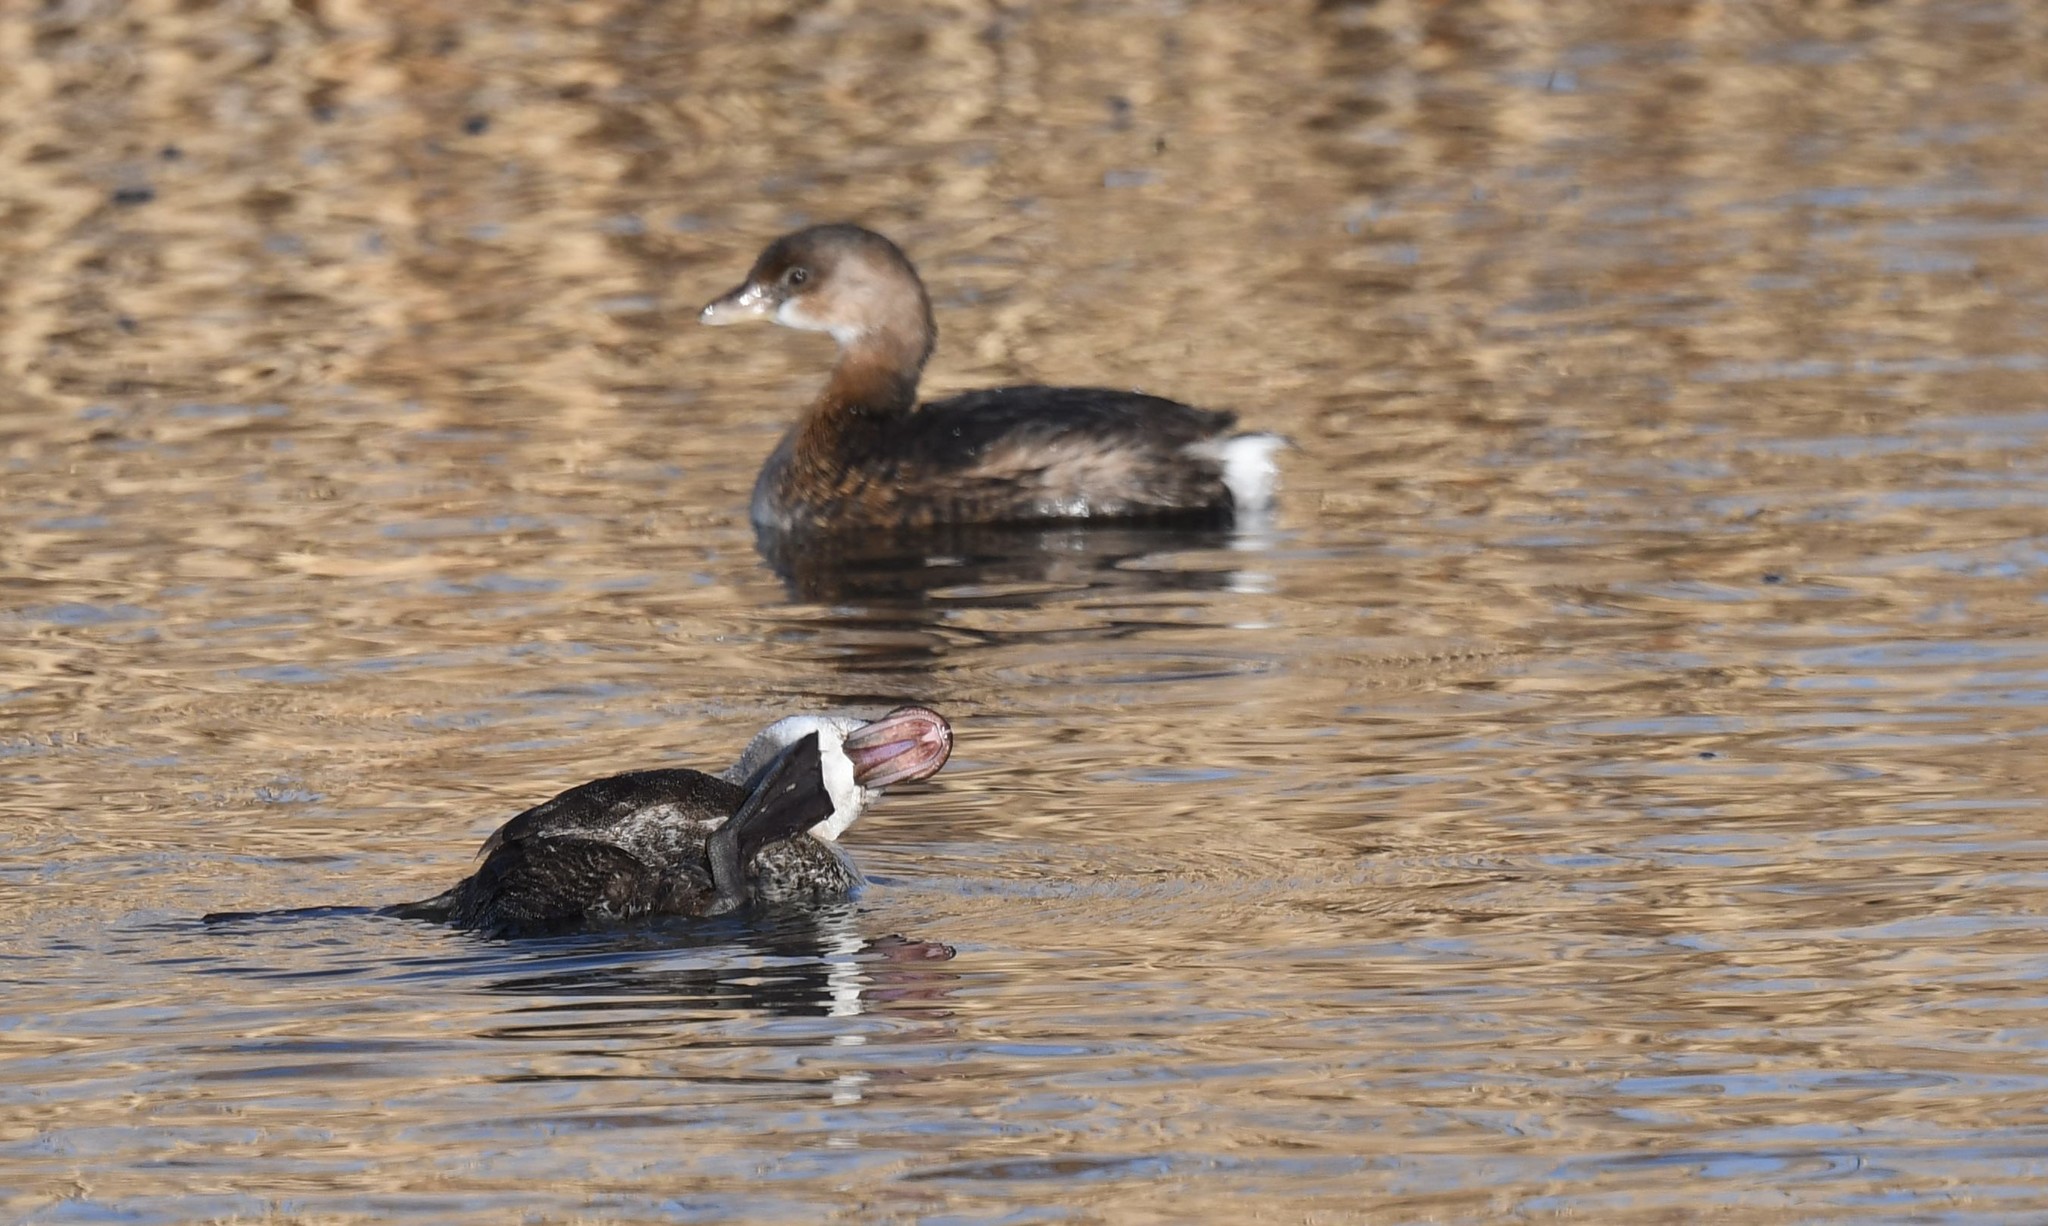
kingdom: Animalia
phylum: Chordata
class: Aves
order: Anseriformes
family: Anatidae
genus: Oxyura
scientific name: Oxyura jamaicensis
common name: Ruddy duck
